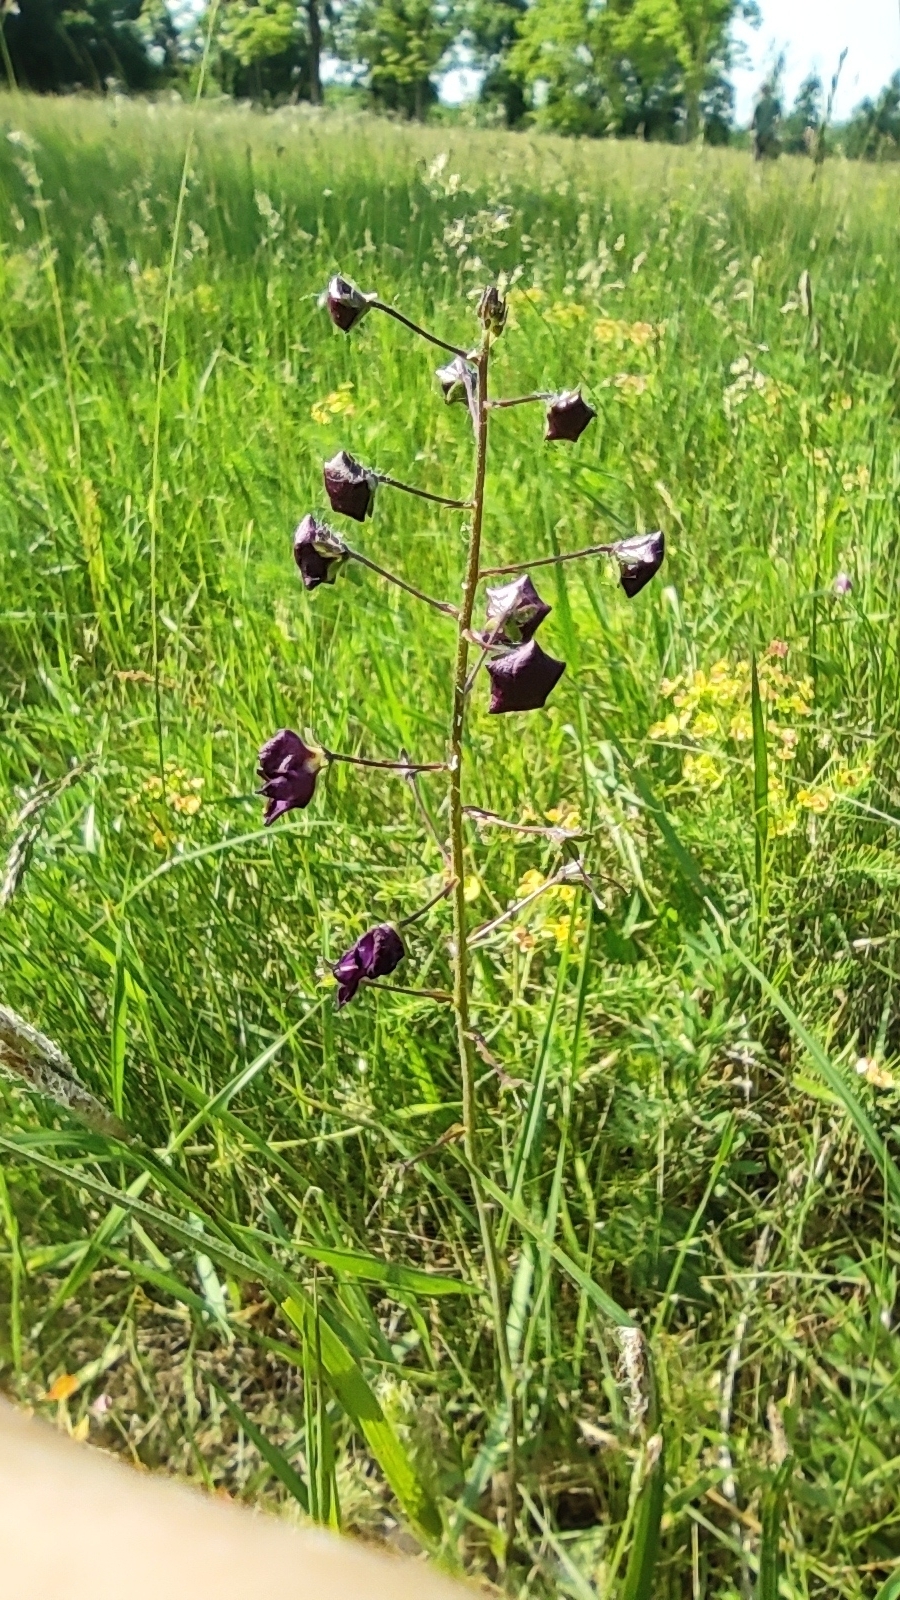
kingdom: Plantae
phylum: Tracheophyta
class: Magnoliopsida
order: Lamiales
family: Scrophulariaceae
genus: Verbascum
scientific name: Verbascum phoeniceum
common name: Purple mullein
